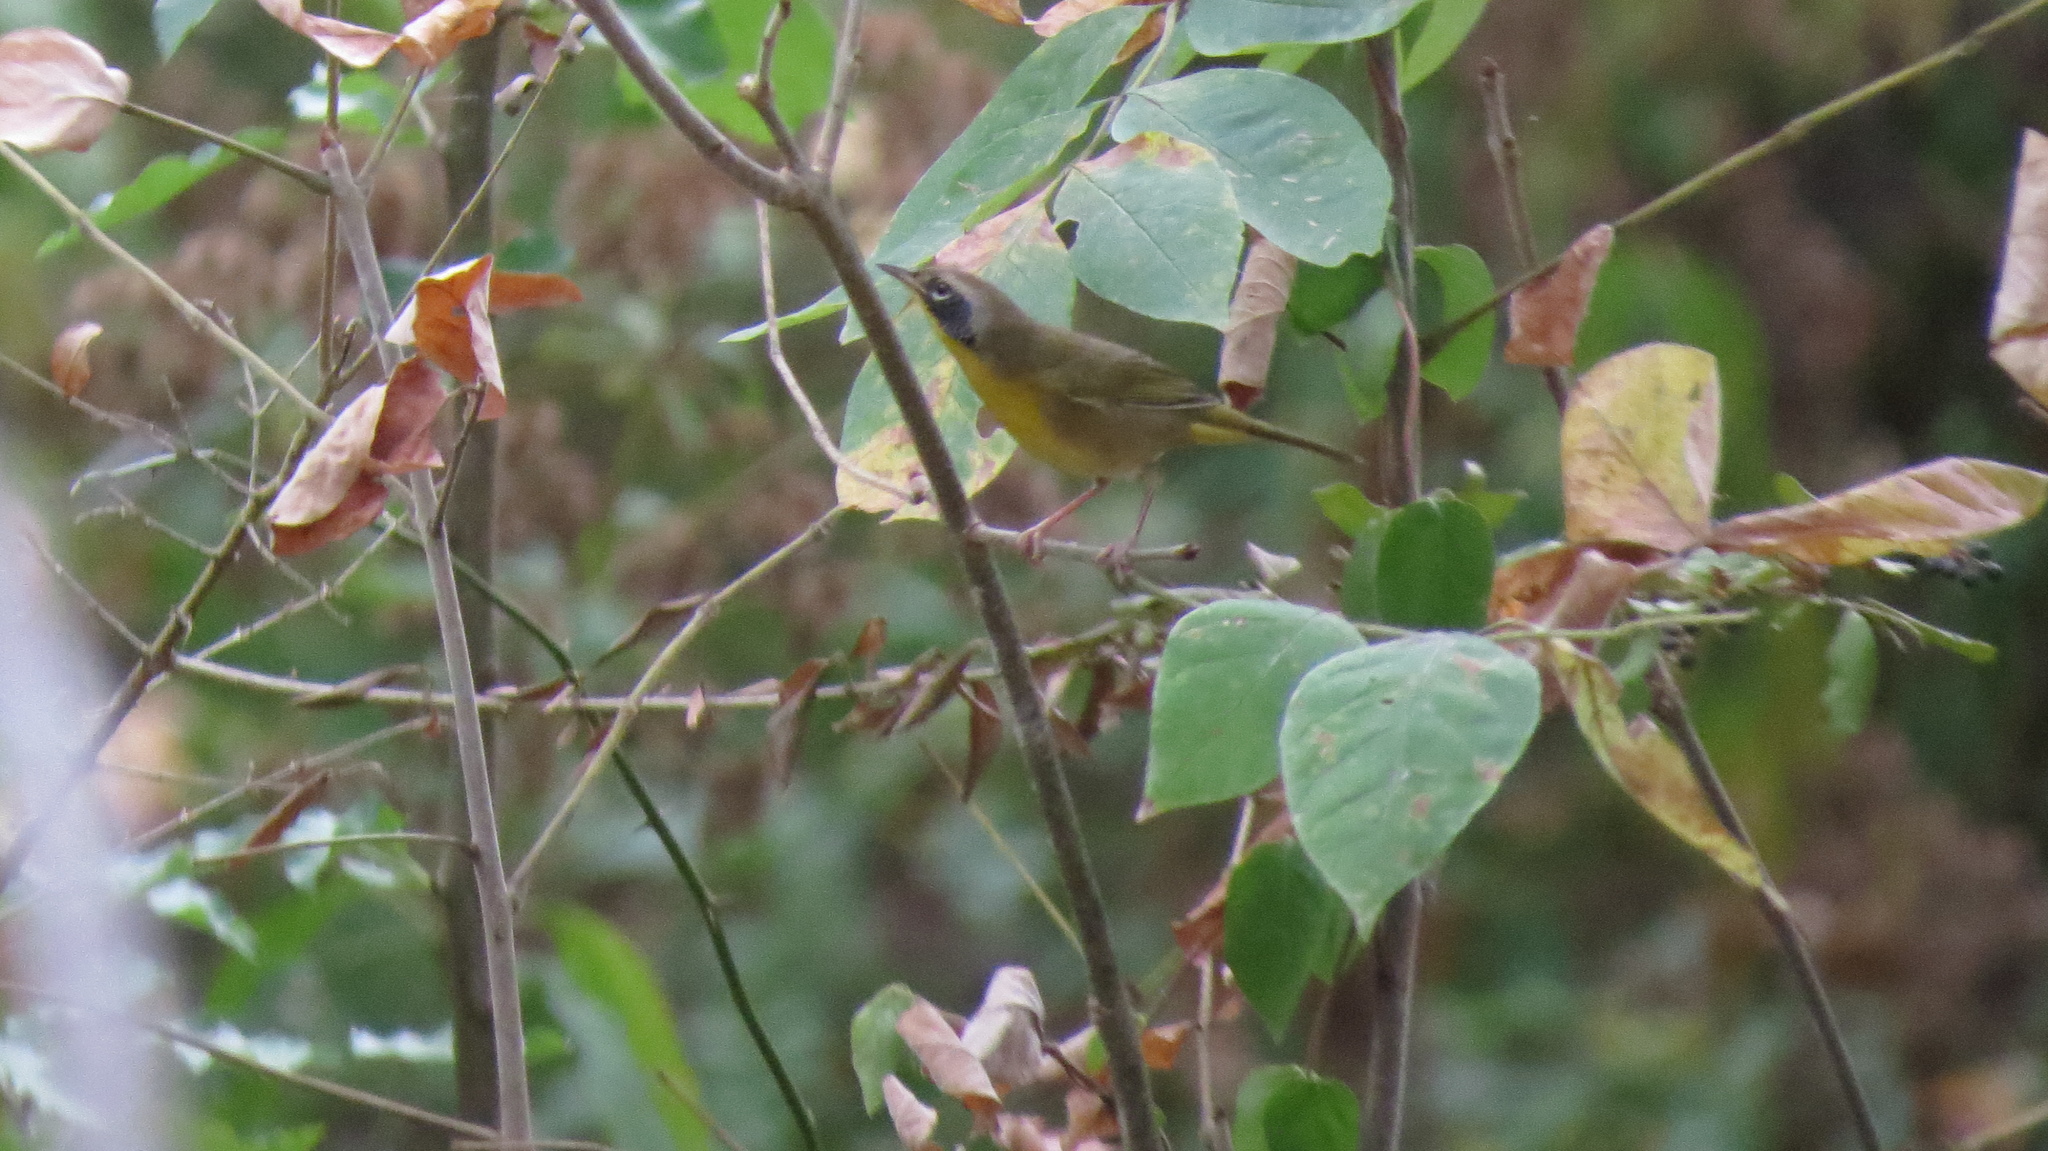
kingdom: Animalia
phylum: Chordata
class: Aves
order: Passeriformes
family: Parulidae
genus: Geothlypis
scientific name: Geothlypis trichas
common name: Common yellowthroat
